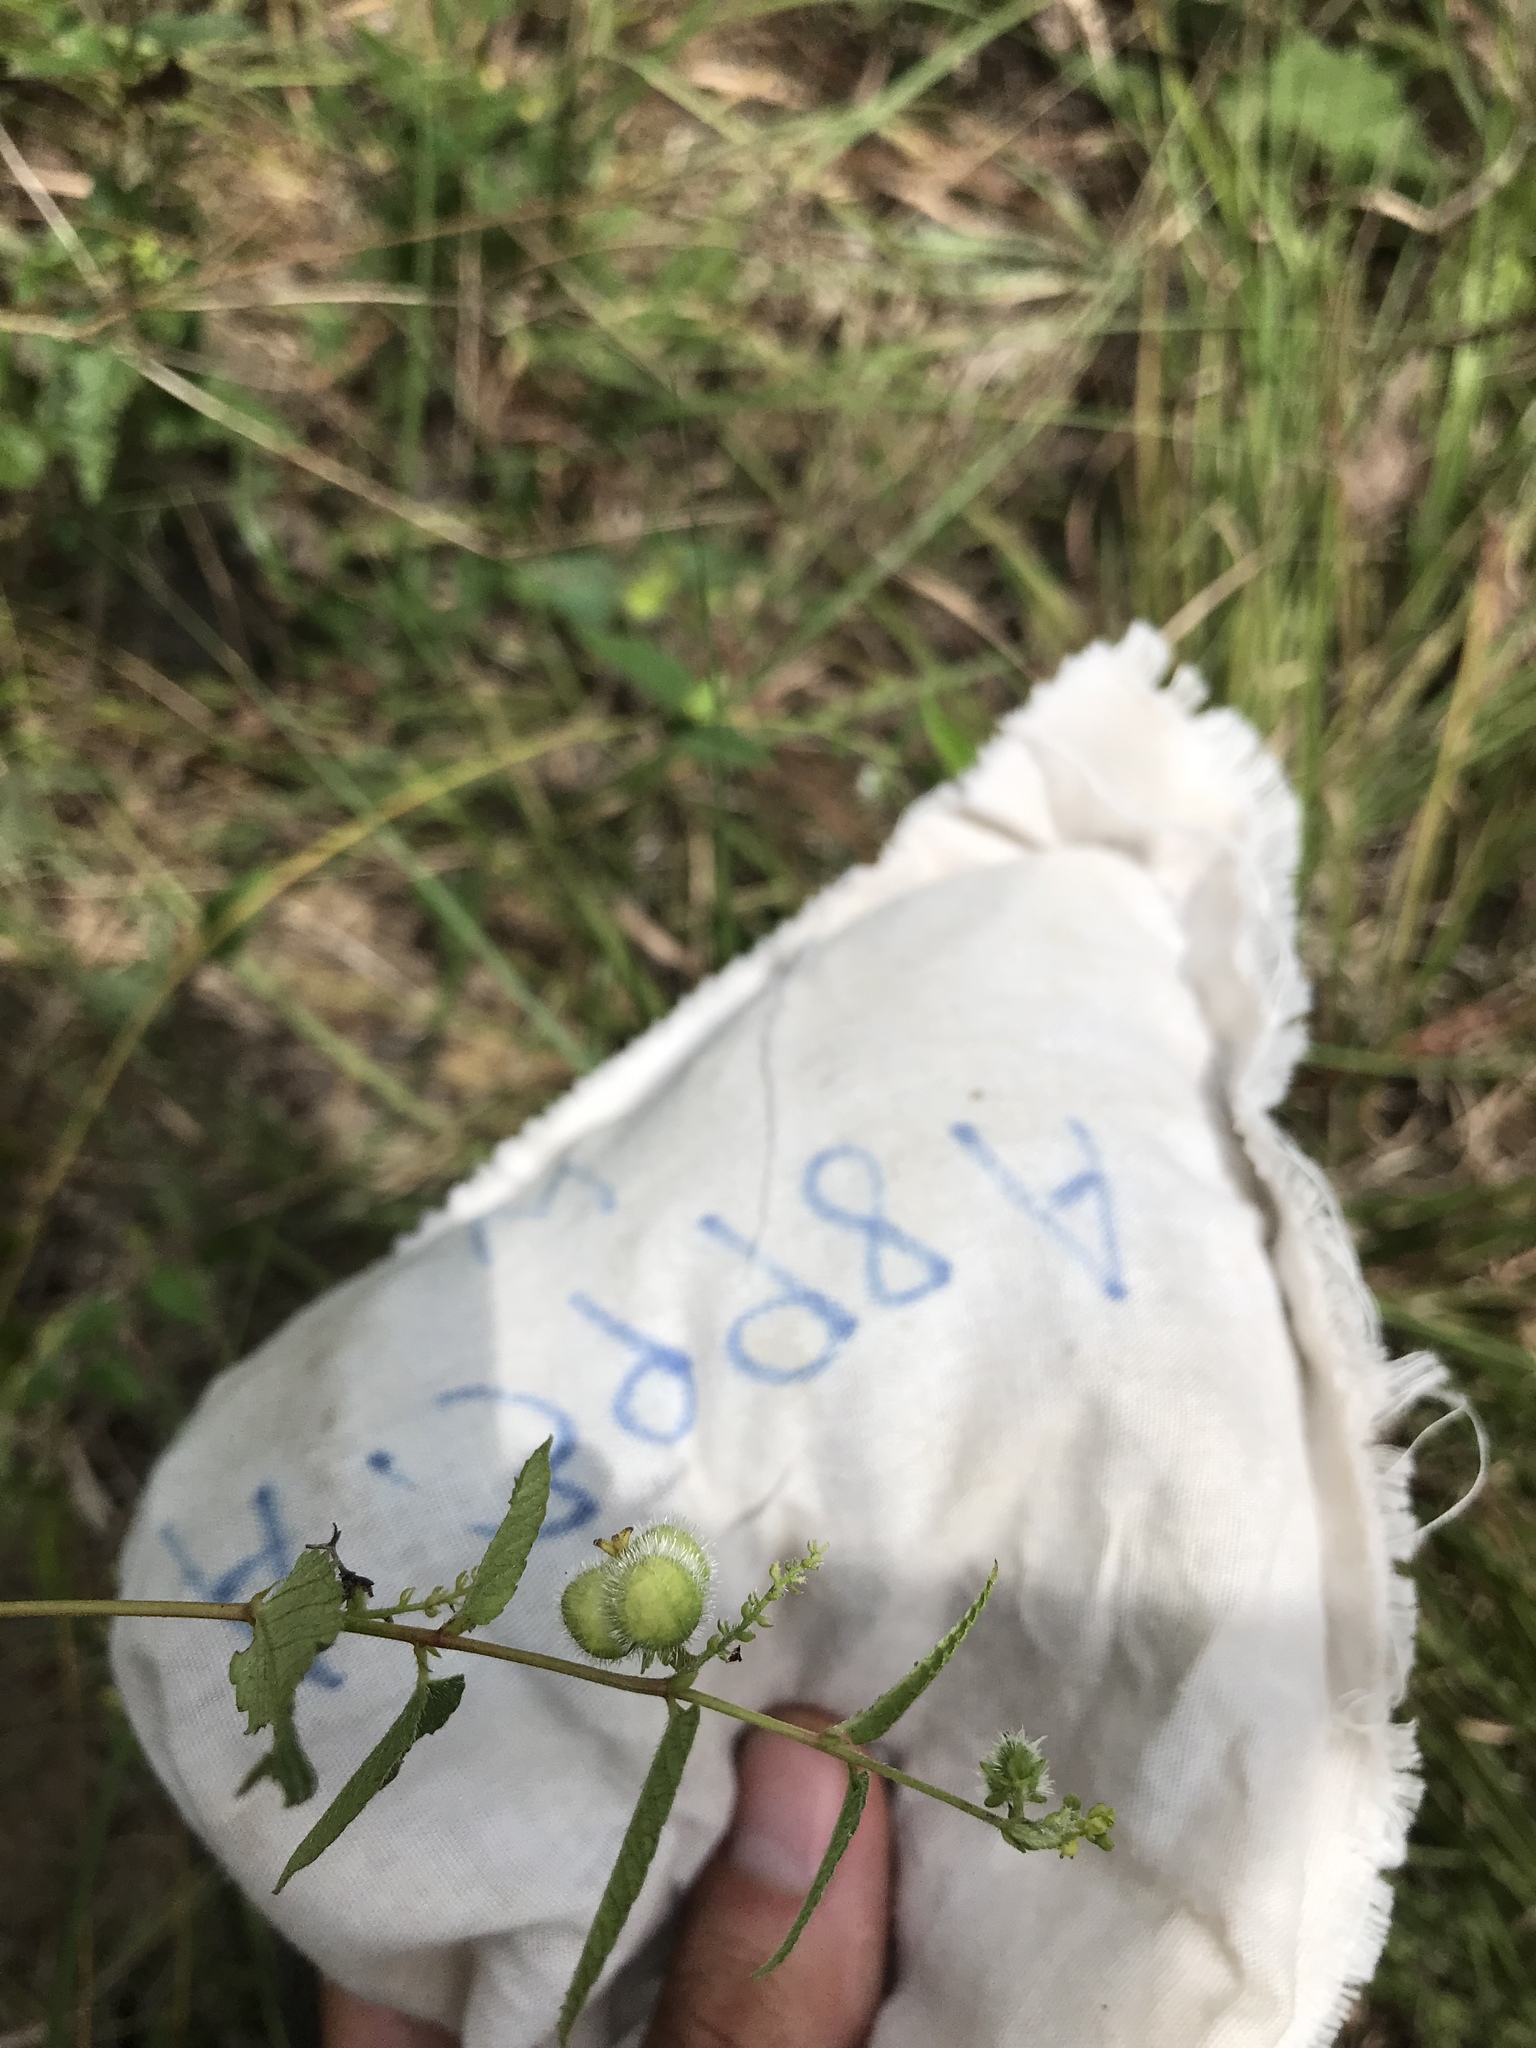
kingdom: Plantae
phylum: Tracheophyta
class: Magnoliopsida
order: Malpighiales
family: Euphorbiaceae
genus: Tragia
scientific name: Tragia urticifolia
